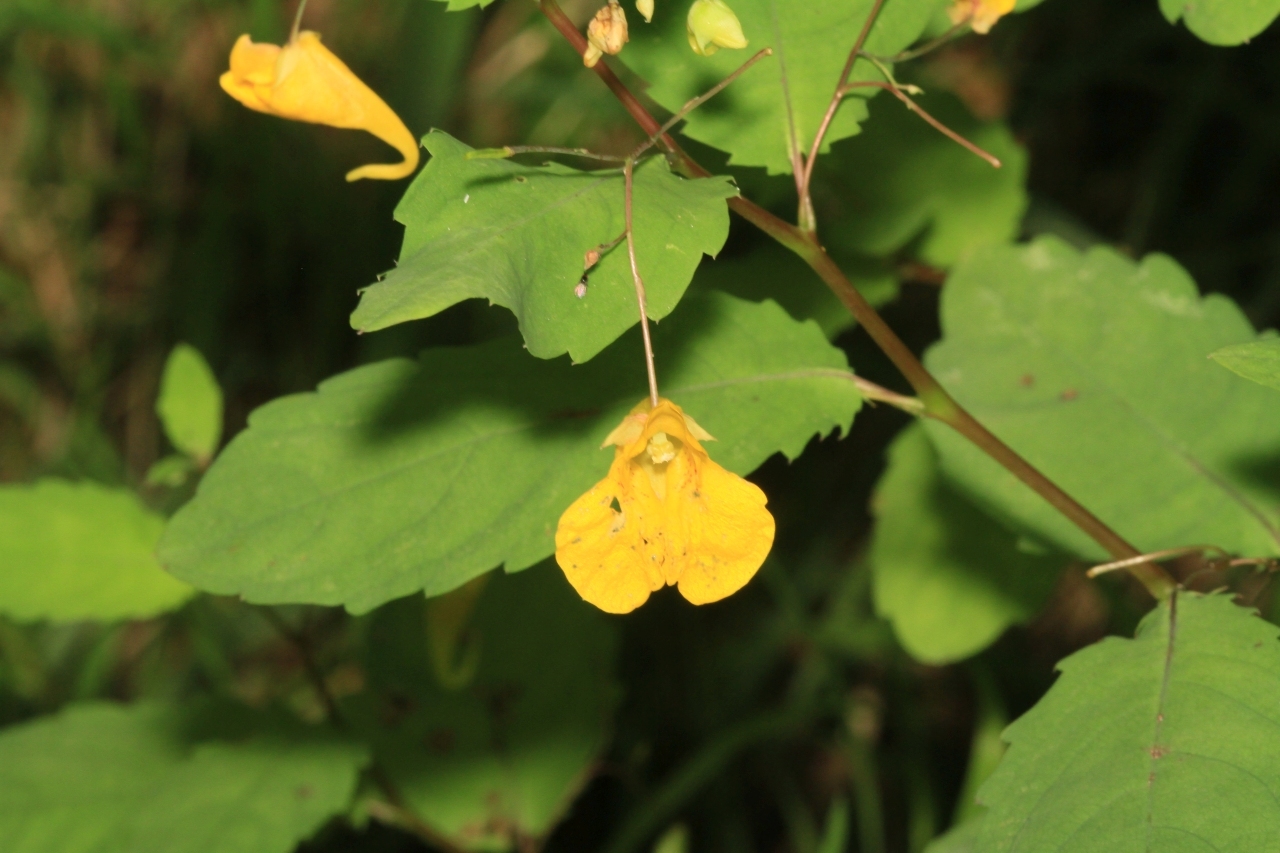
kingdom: Plantae
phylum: Tracheophyta
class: Magnoliopsida
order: Ericales
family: Balsaminaceae
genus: Impatiens
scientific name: Impatiens noli-tangere
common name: Touch-me-not balsam
